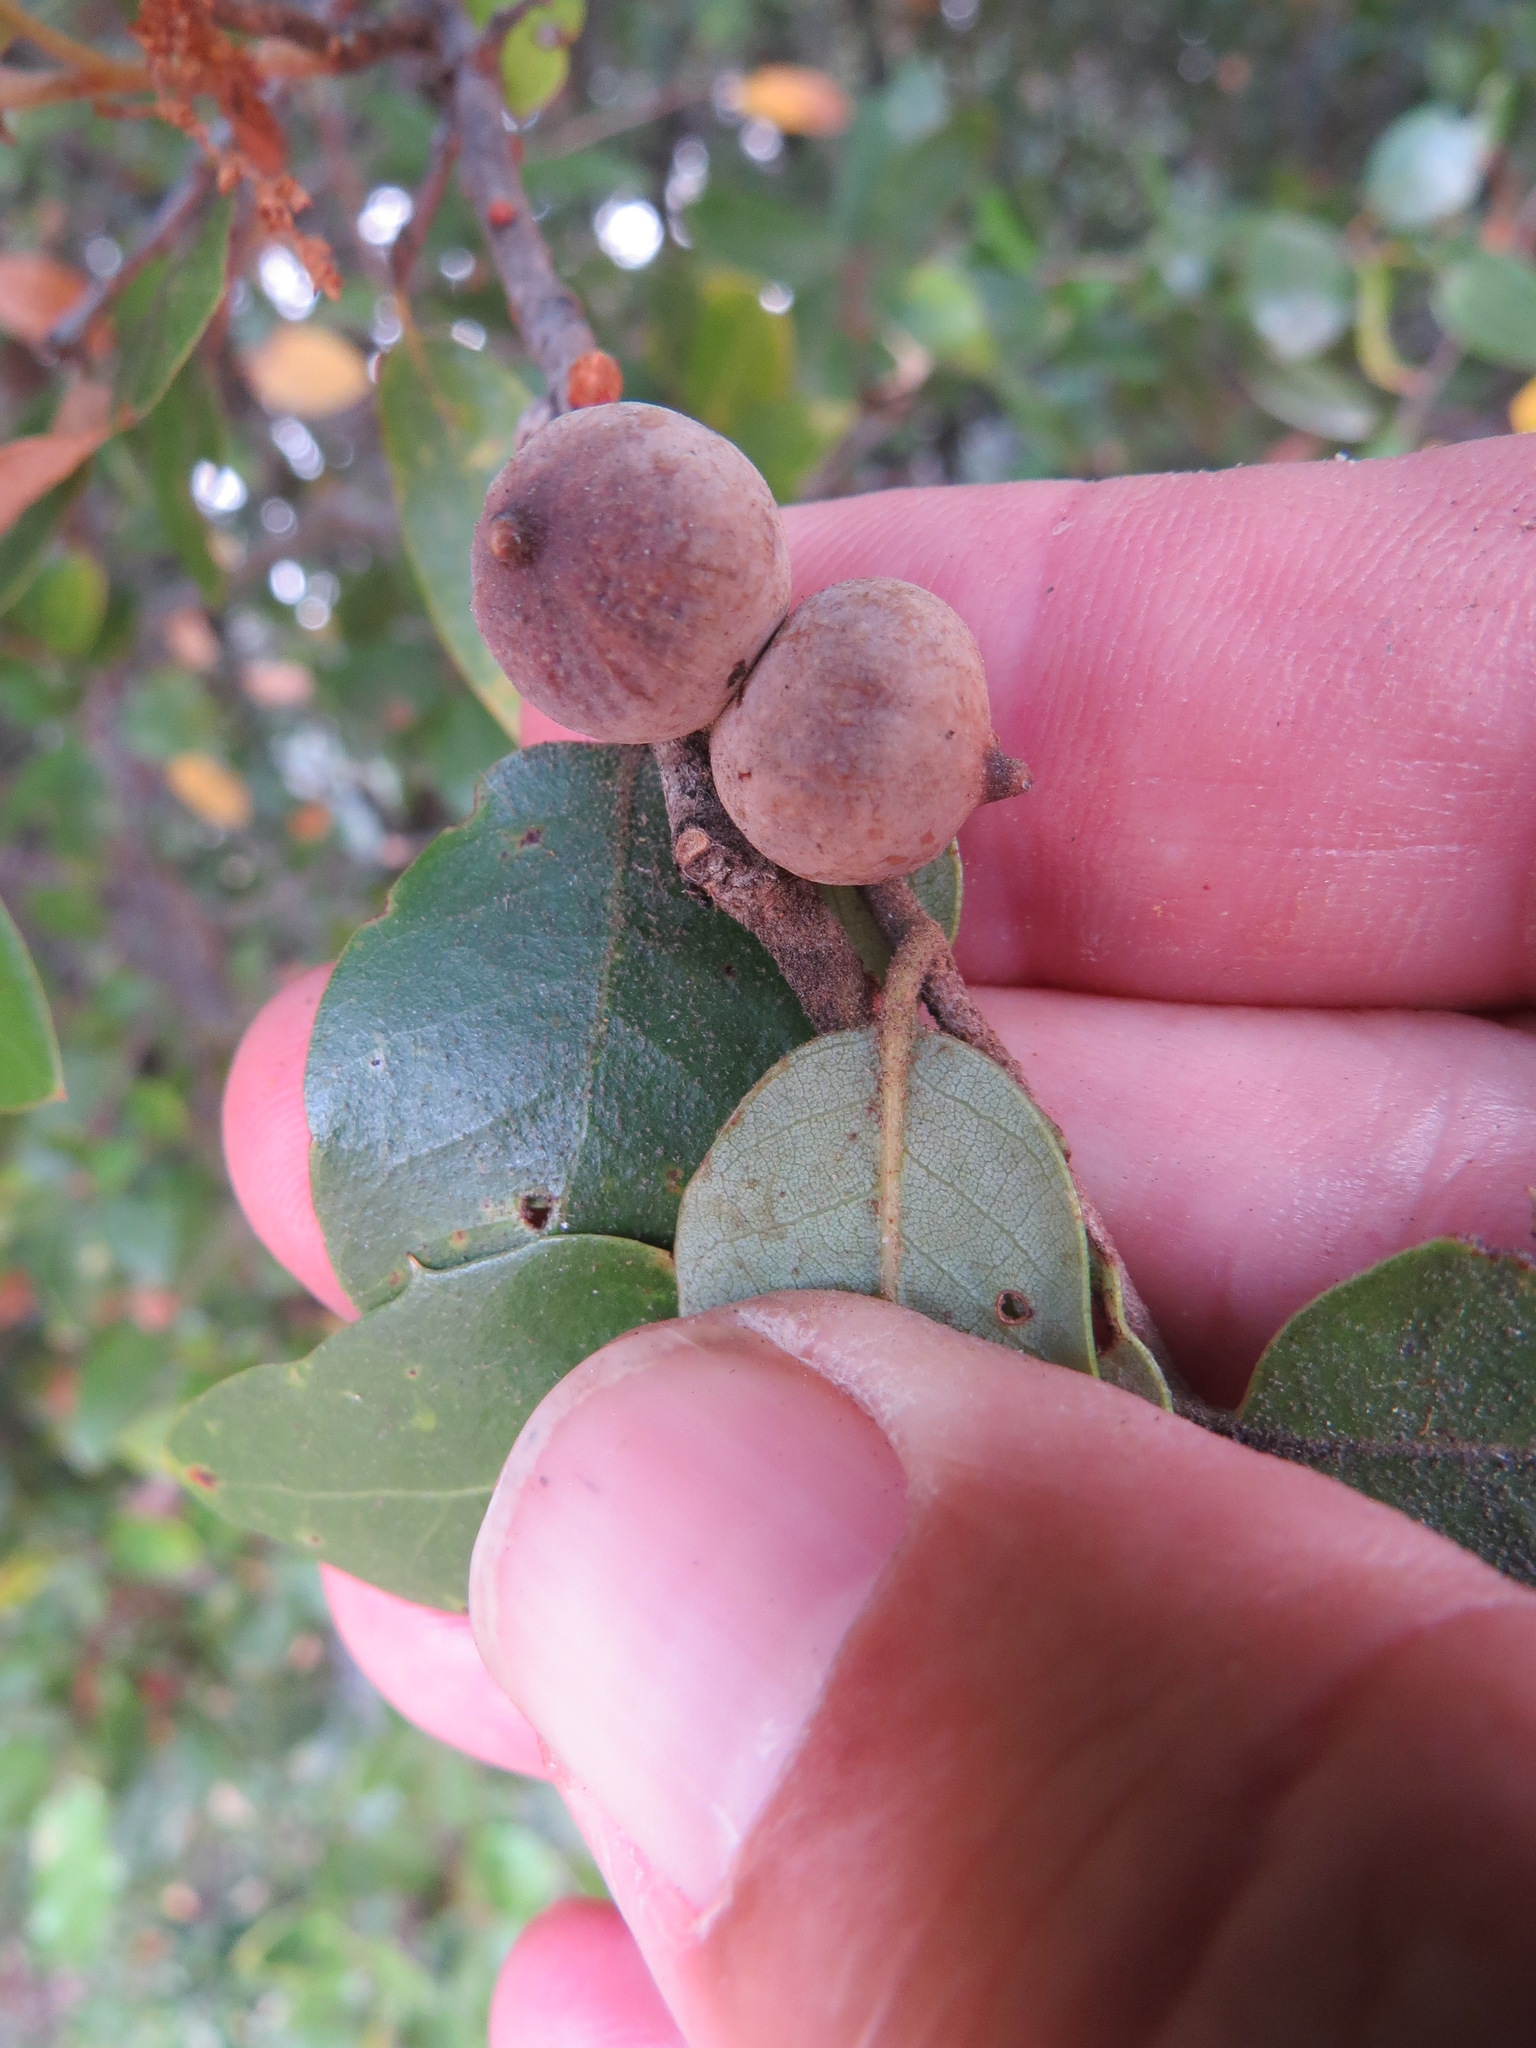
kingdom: Animalia
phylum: Arthropoda
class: Insecta
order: Hymenoptera
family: Cynipidae
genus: Heteroecus
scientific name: Heteroecus
